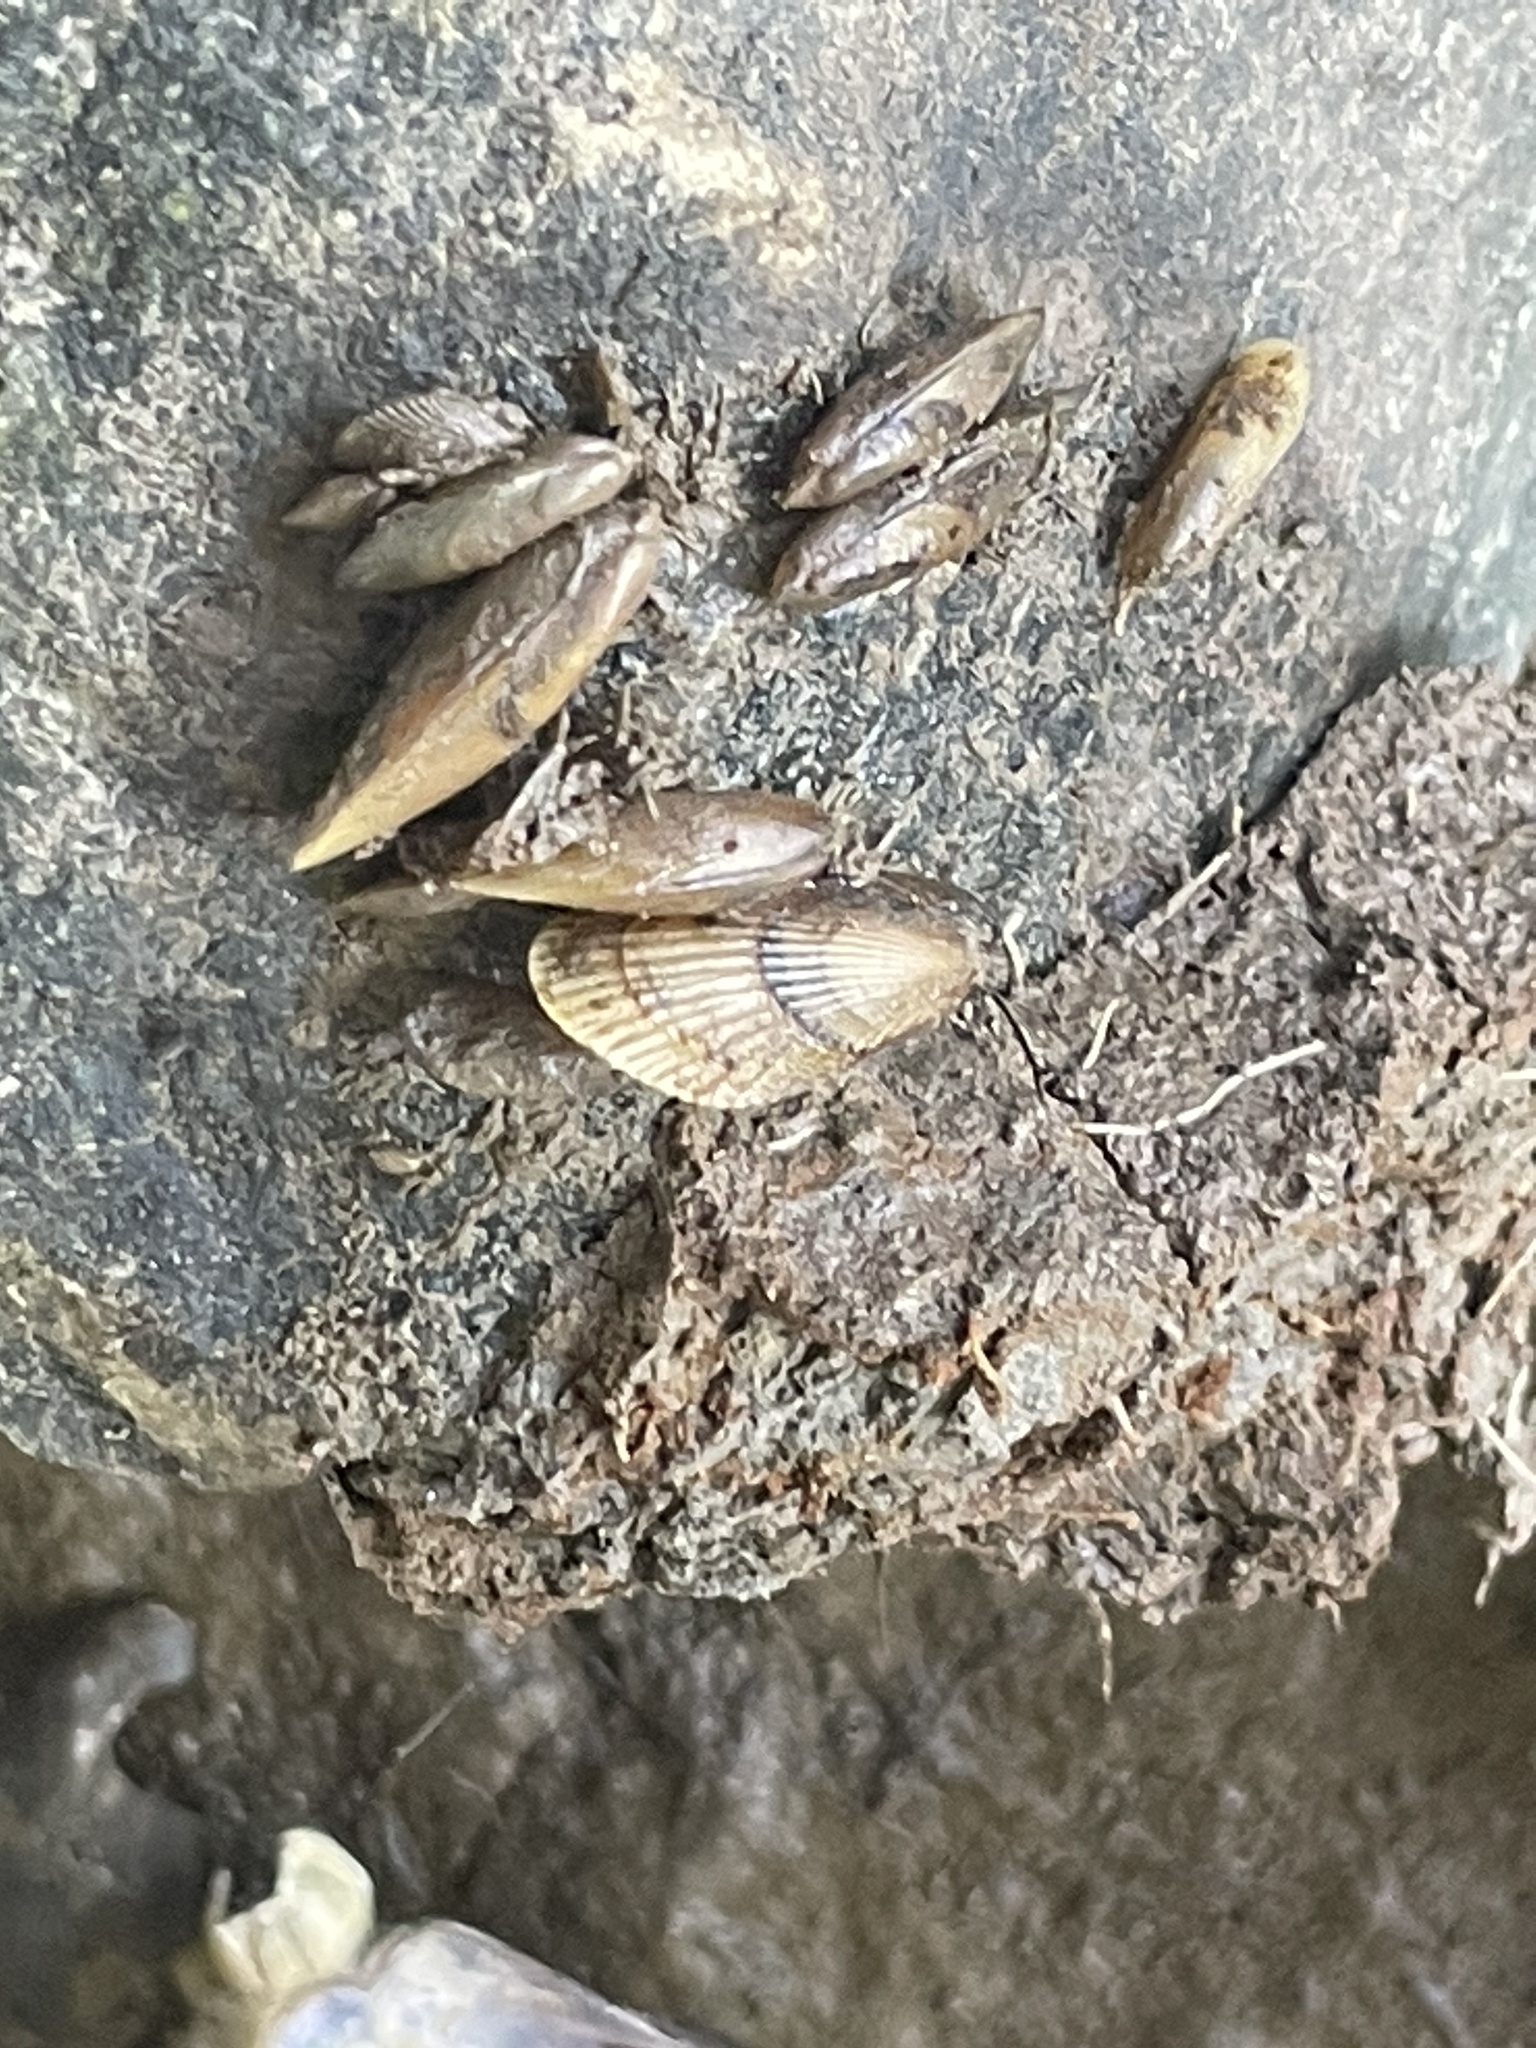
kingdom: Animalia
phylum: Mollusca
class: Bivalvia
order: Mytilida
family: Mytilidae
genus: Geukensia
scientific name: Geukensia demissa
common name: Ribbed mussel
